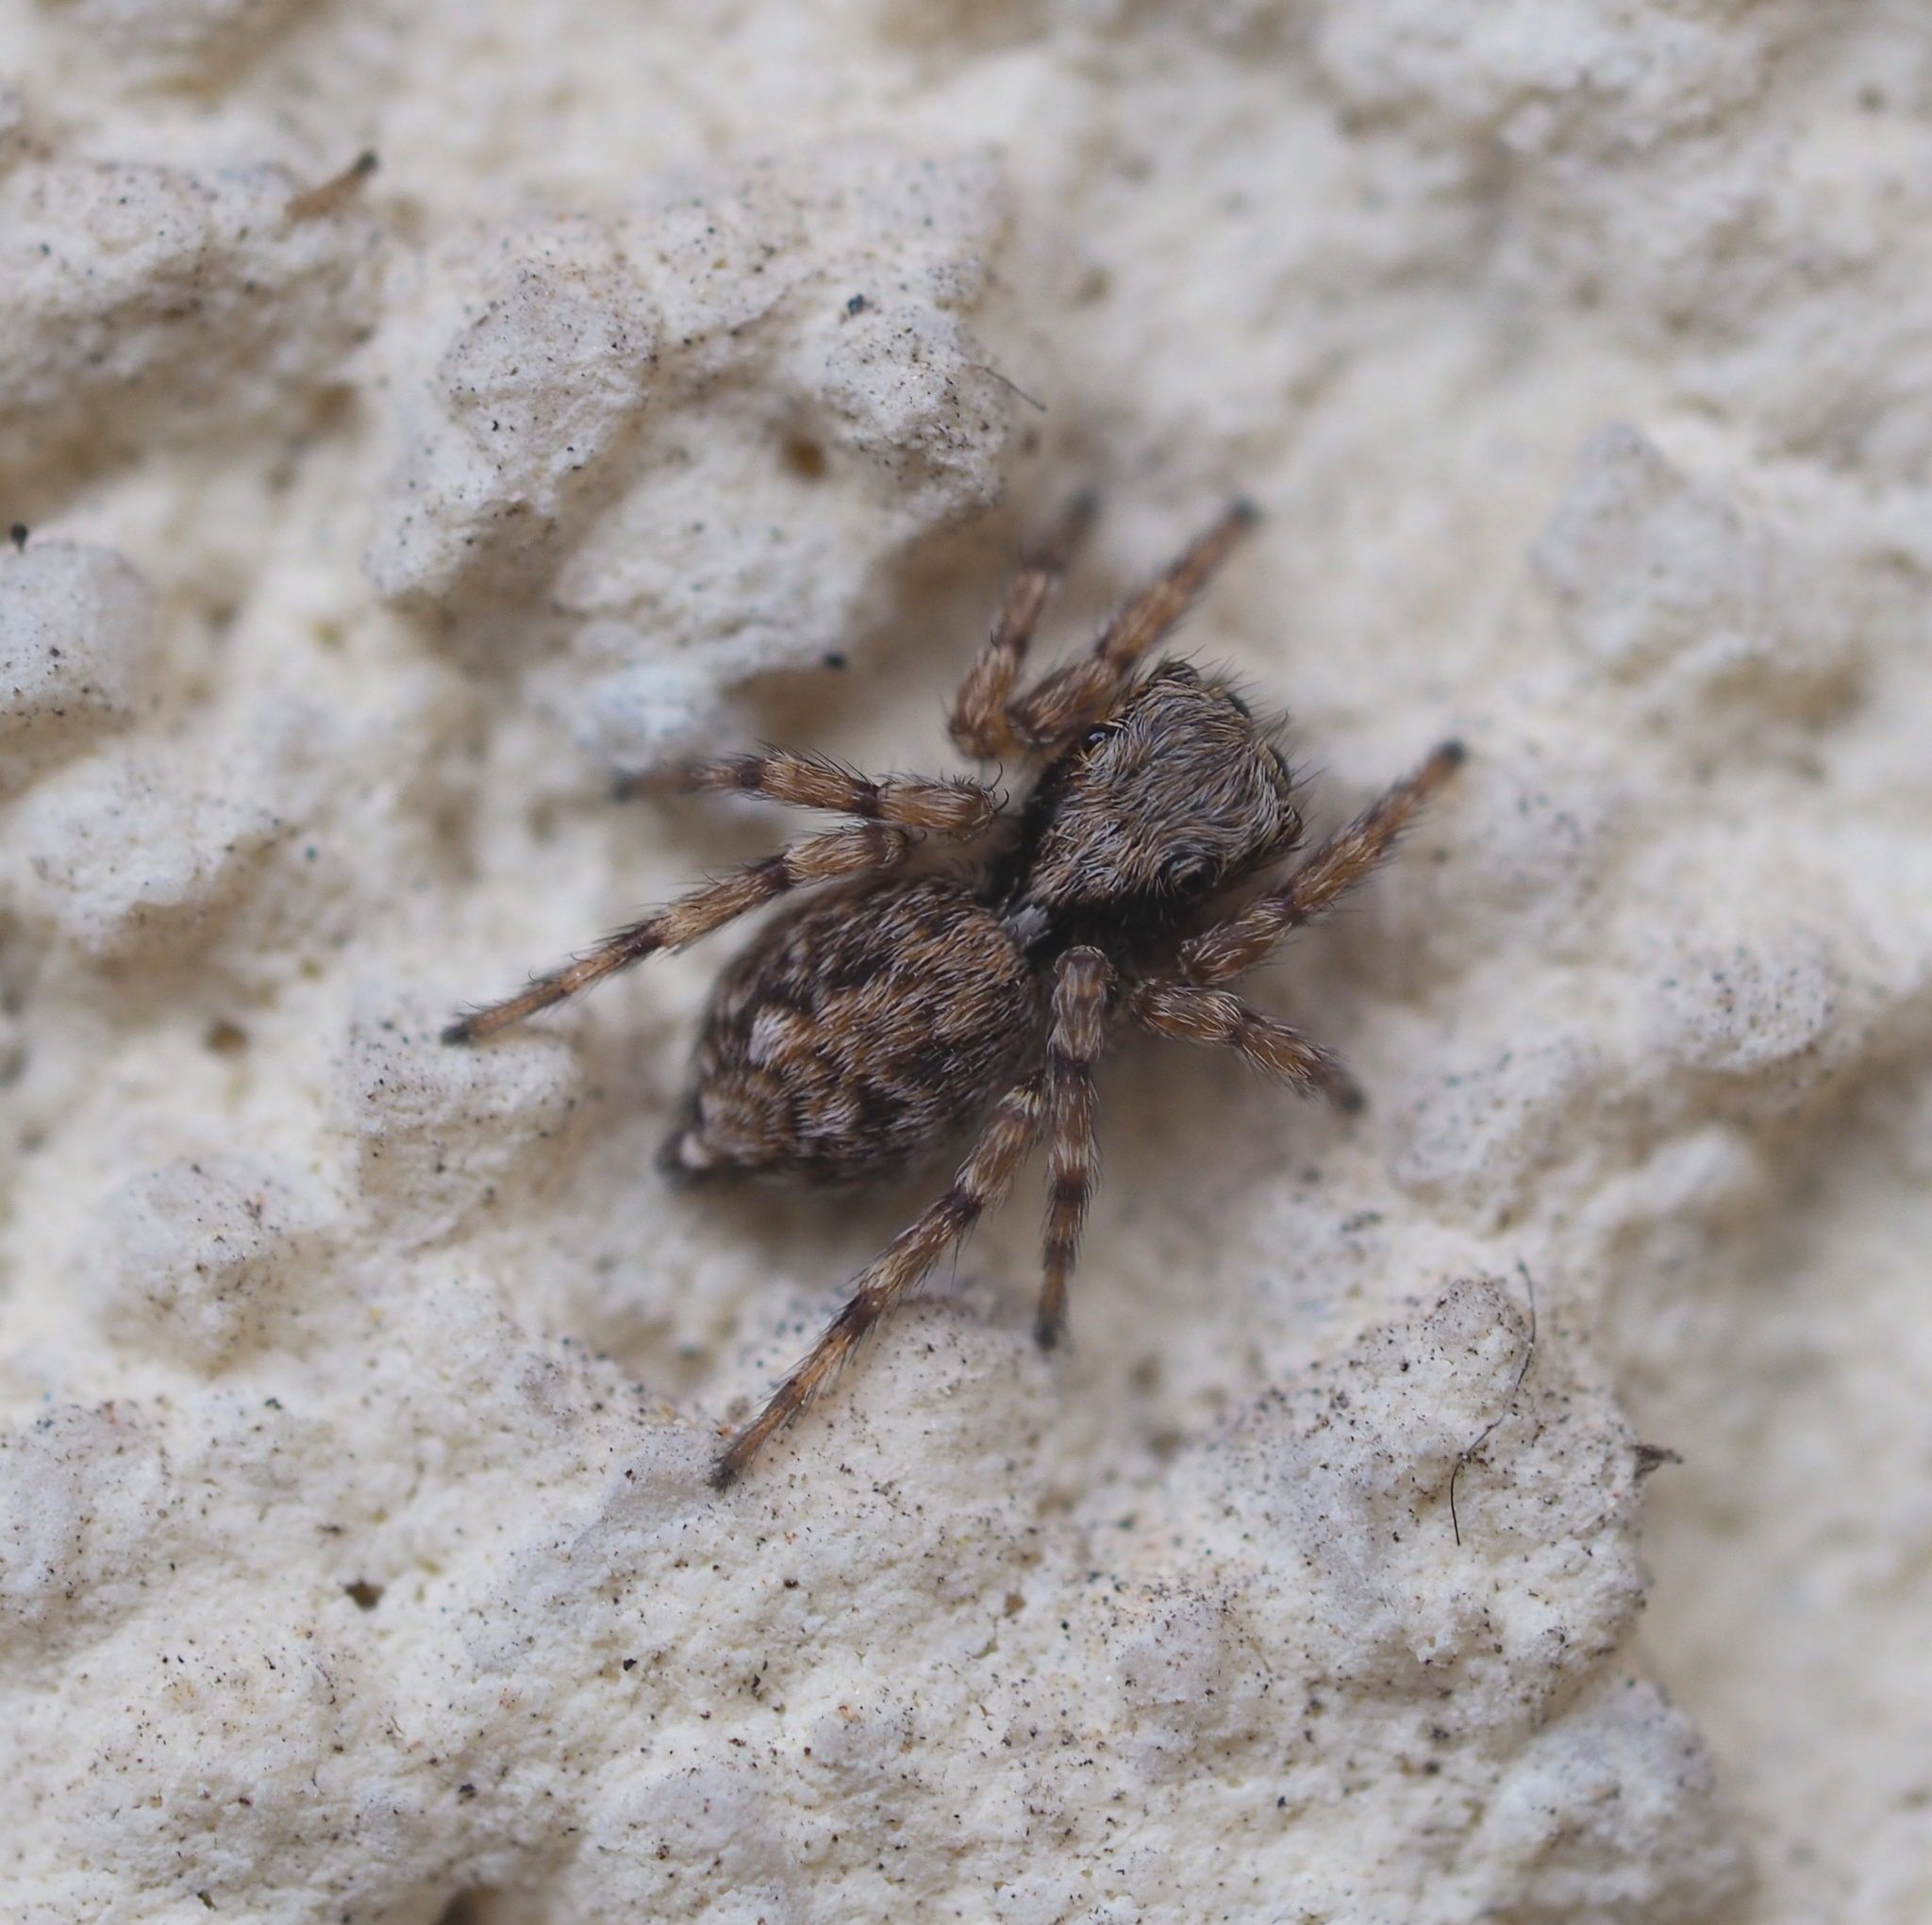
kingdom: Animalia
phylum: Arthropoda
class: Arachnida
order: Araneae
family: Salticidae
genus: Pseudeuophrys
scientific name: Pseudeuophrys lanigera
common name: Jumping spider
